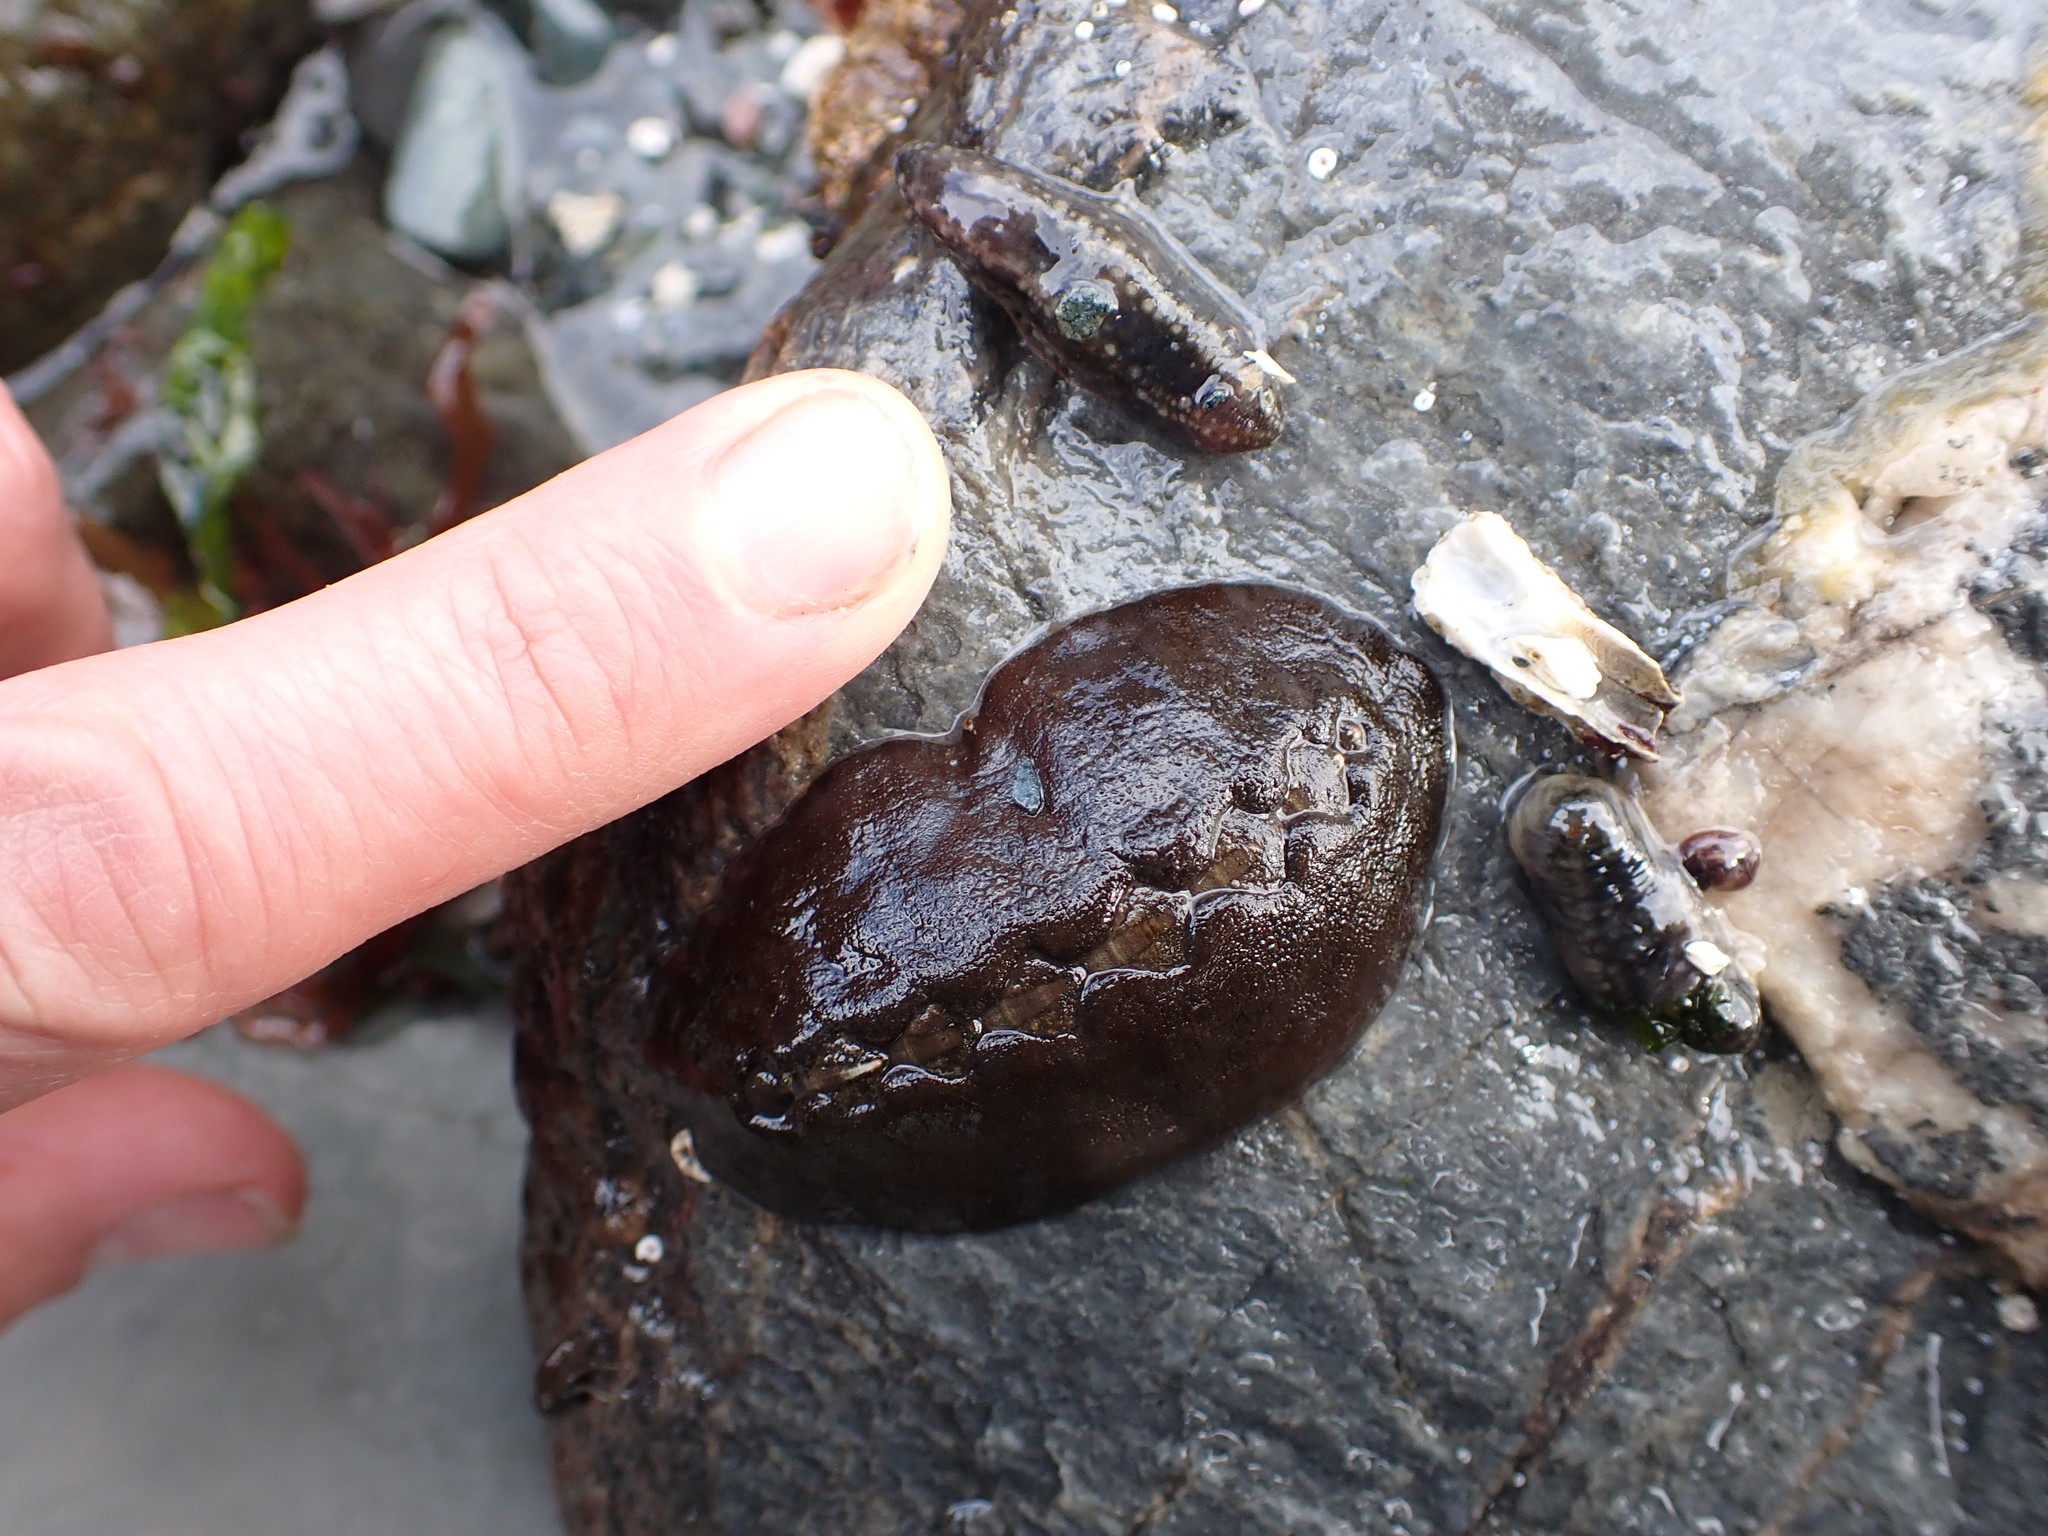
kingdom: Animalia
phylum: Mollusca
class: Polyplacophora
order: Chitonida
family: Mopaliidae
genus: Katharina
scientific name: Katharina tunicata
